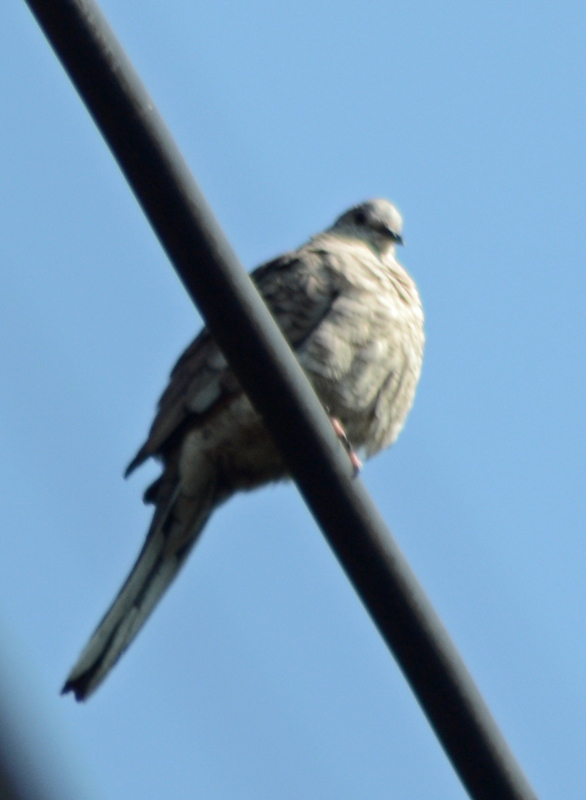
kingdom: Animalia
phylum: Chordata
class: Aves
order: Columbiformes
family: Columbidae
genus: Columbina
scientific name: Columbina inca
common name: Inca dove
